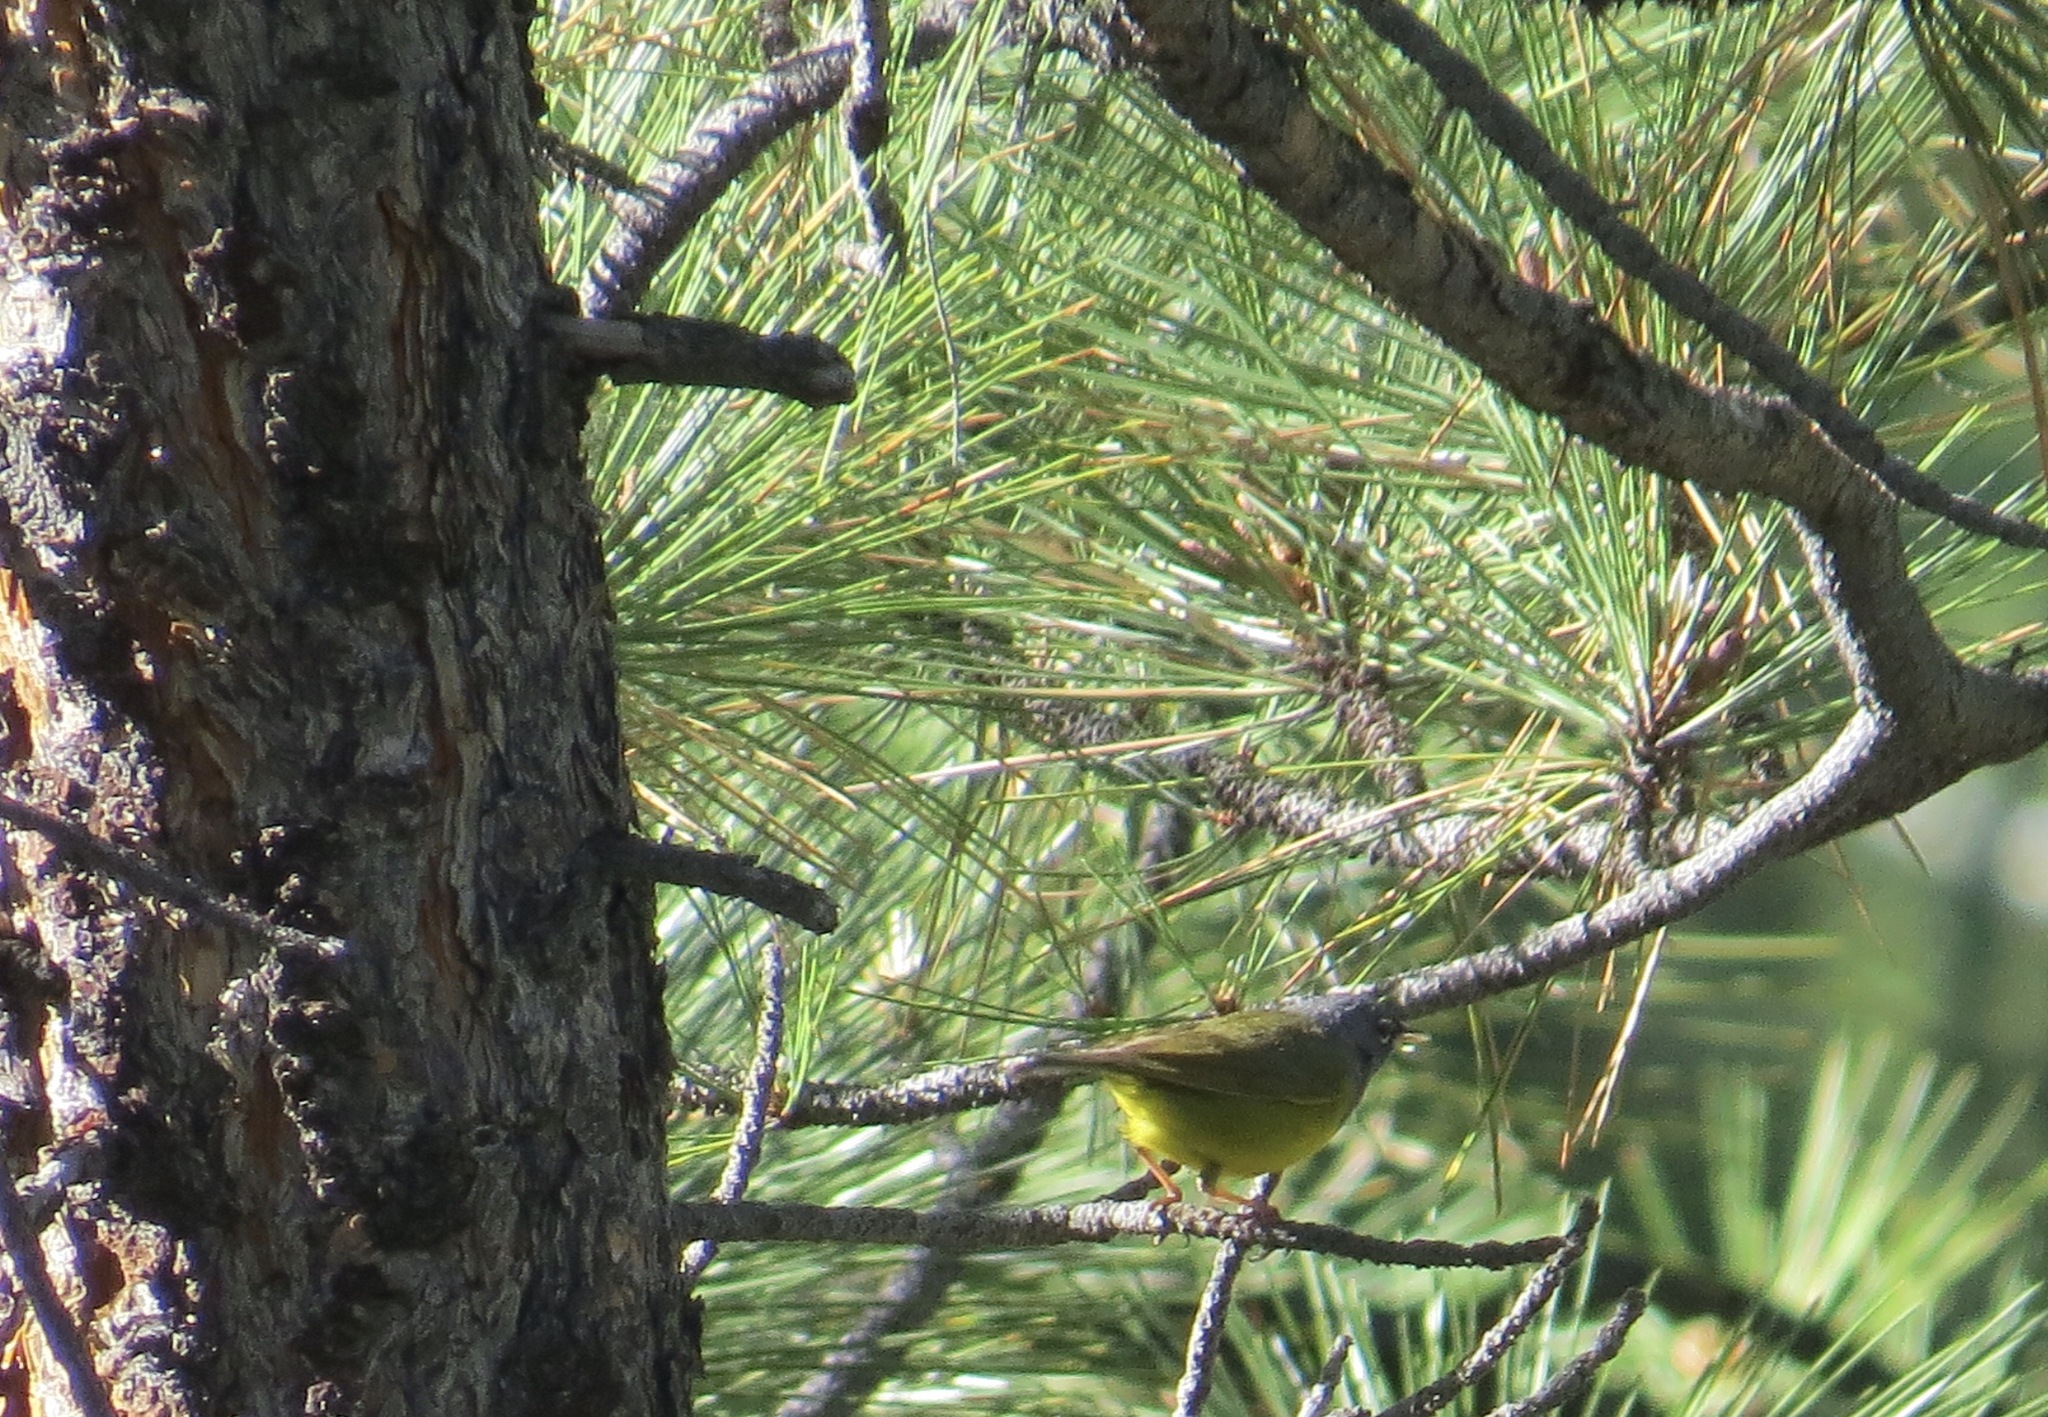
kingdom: Animalia
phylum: Chordata
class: Aves
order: Passeriformes
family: Parulidae
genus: Geothlypis
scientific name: Geothlypis tolmiei
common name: Macgillivray's warbler
